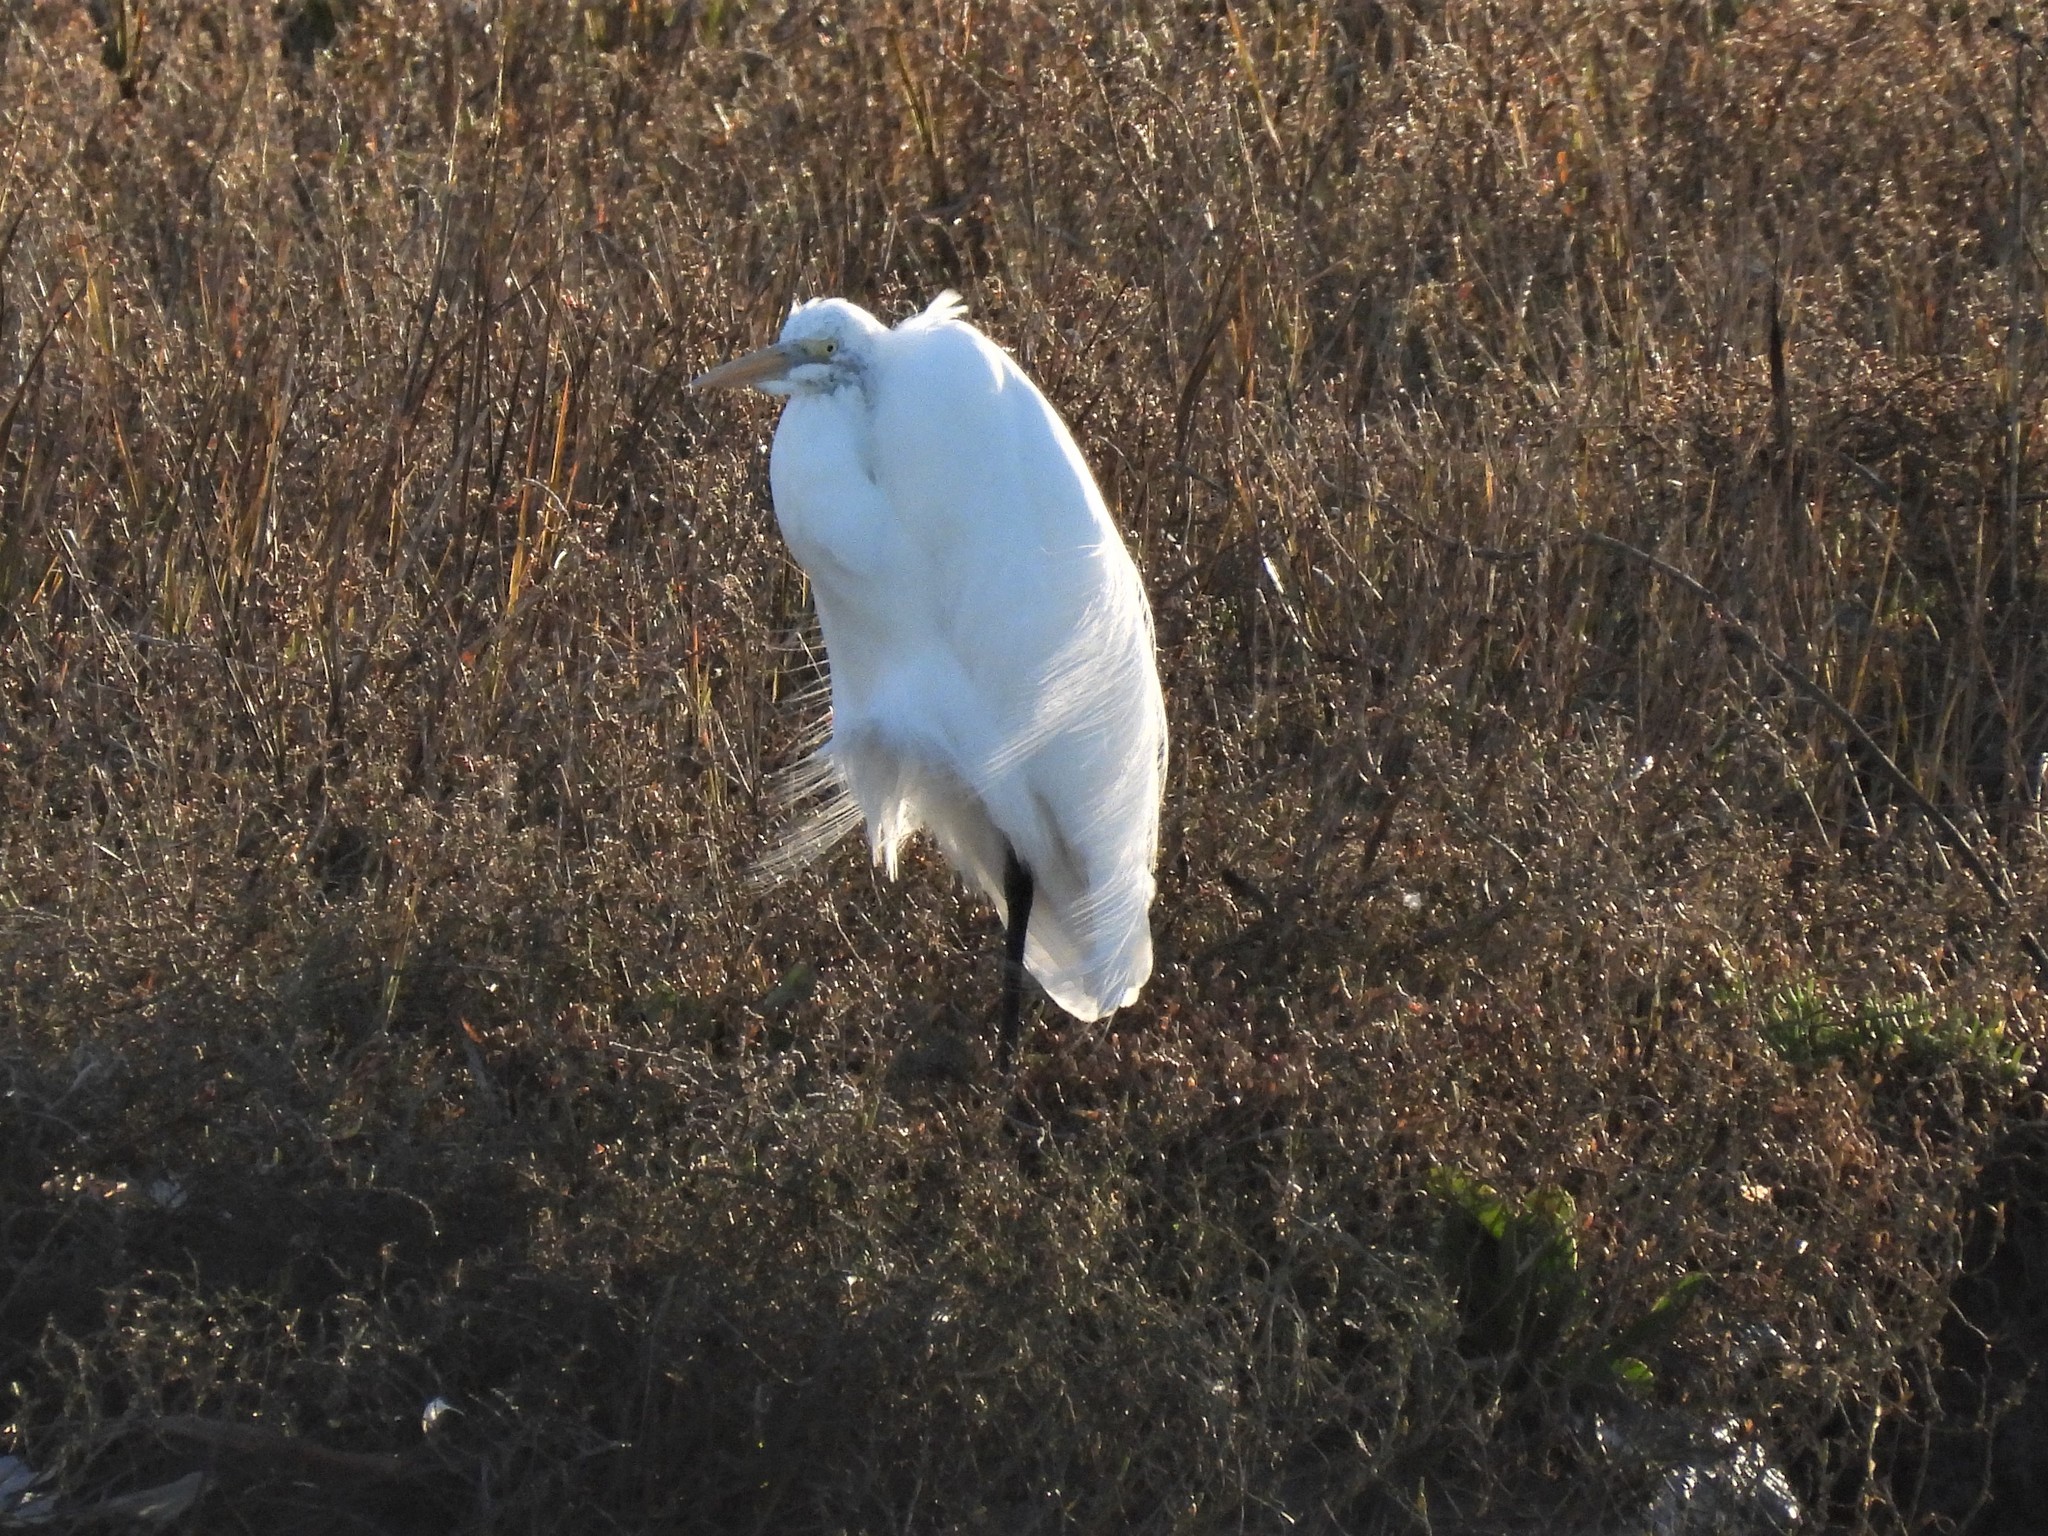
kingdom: Animalia
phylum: Chordata
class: Aves
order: Pelecaniformes
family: Ardeidae
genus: Ardea
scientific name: Ardea alba
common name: Great egret
